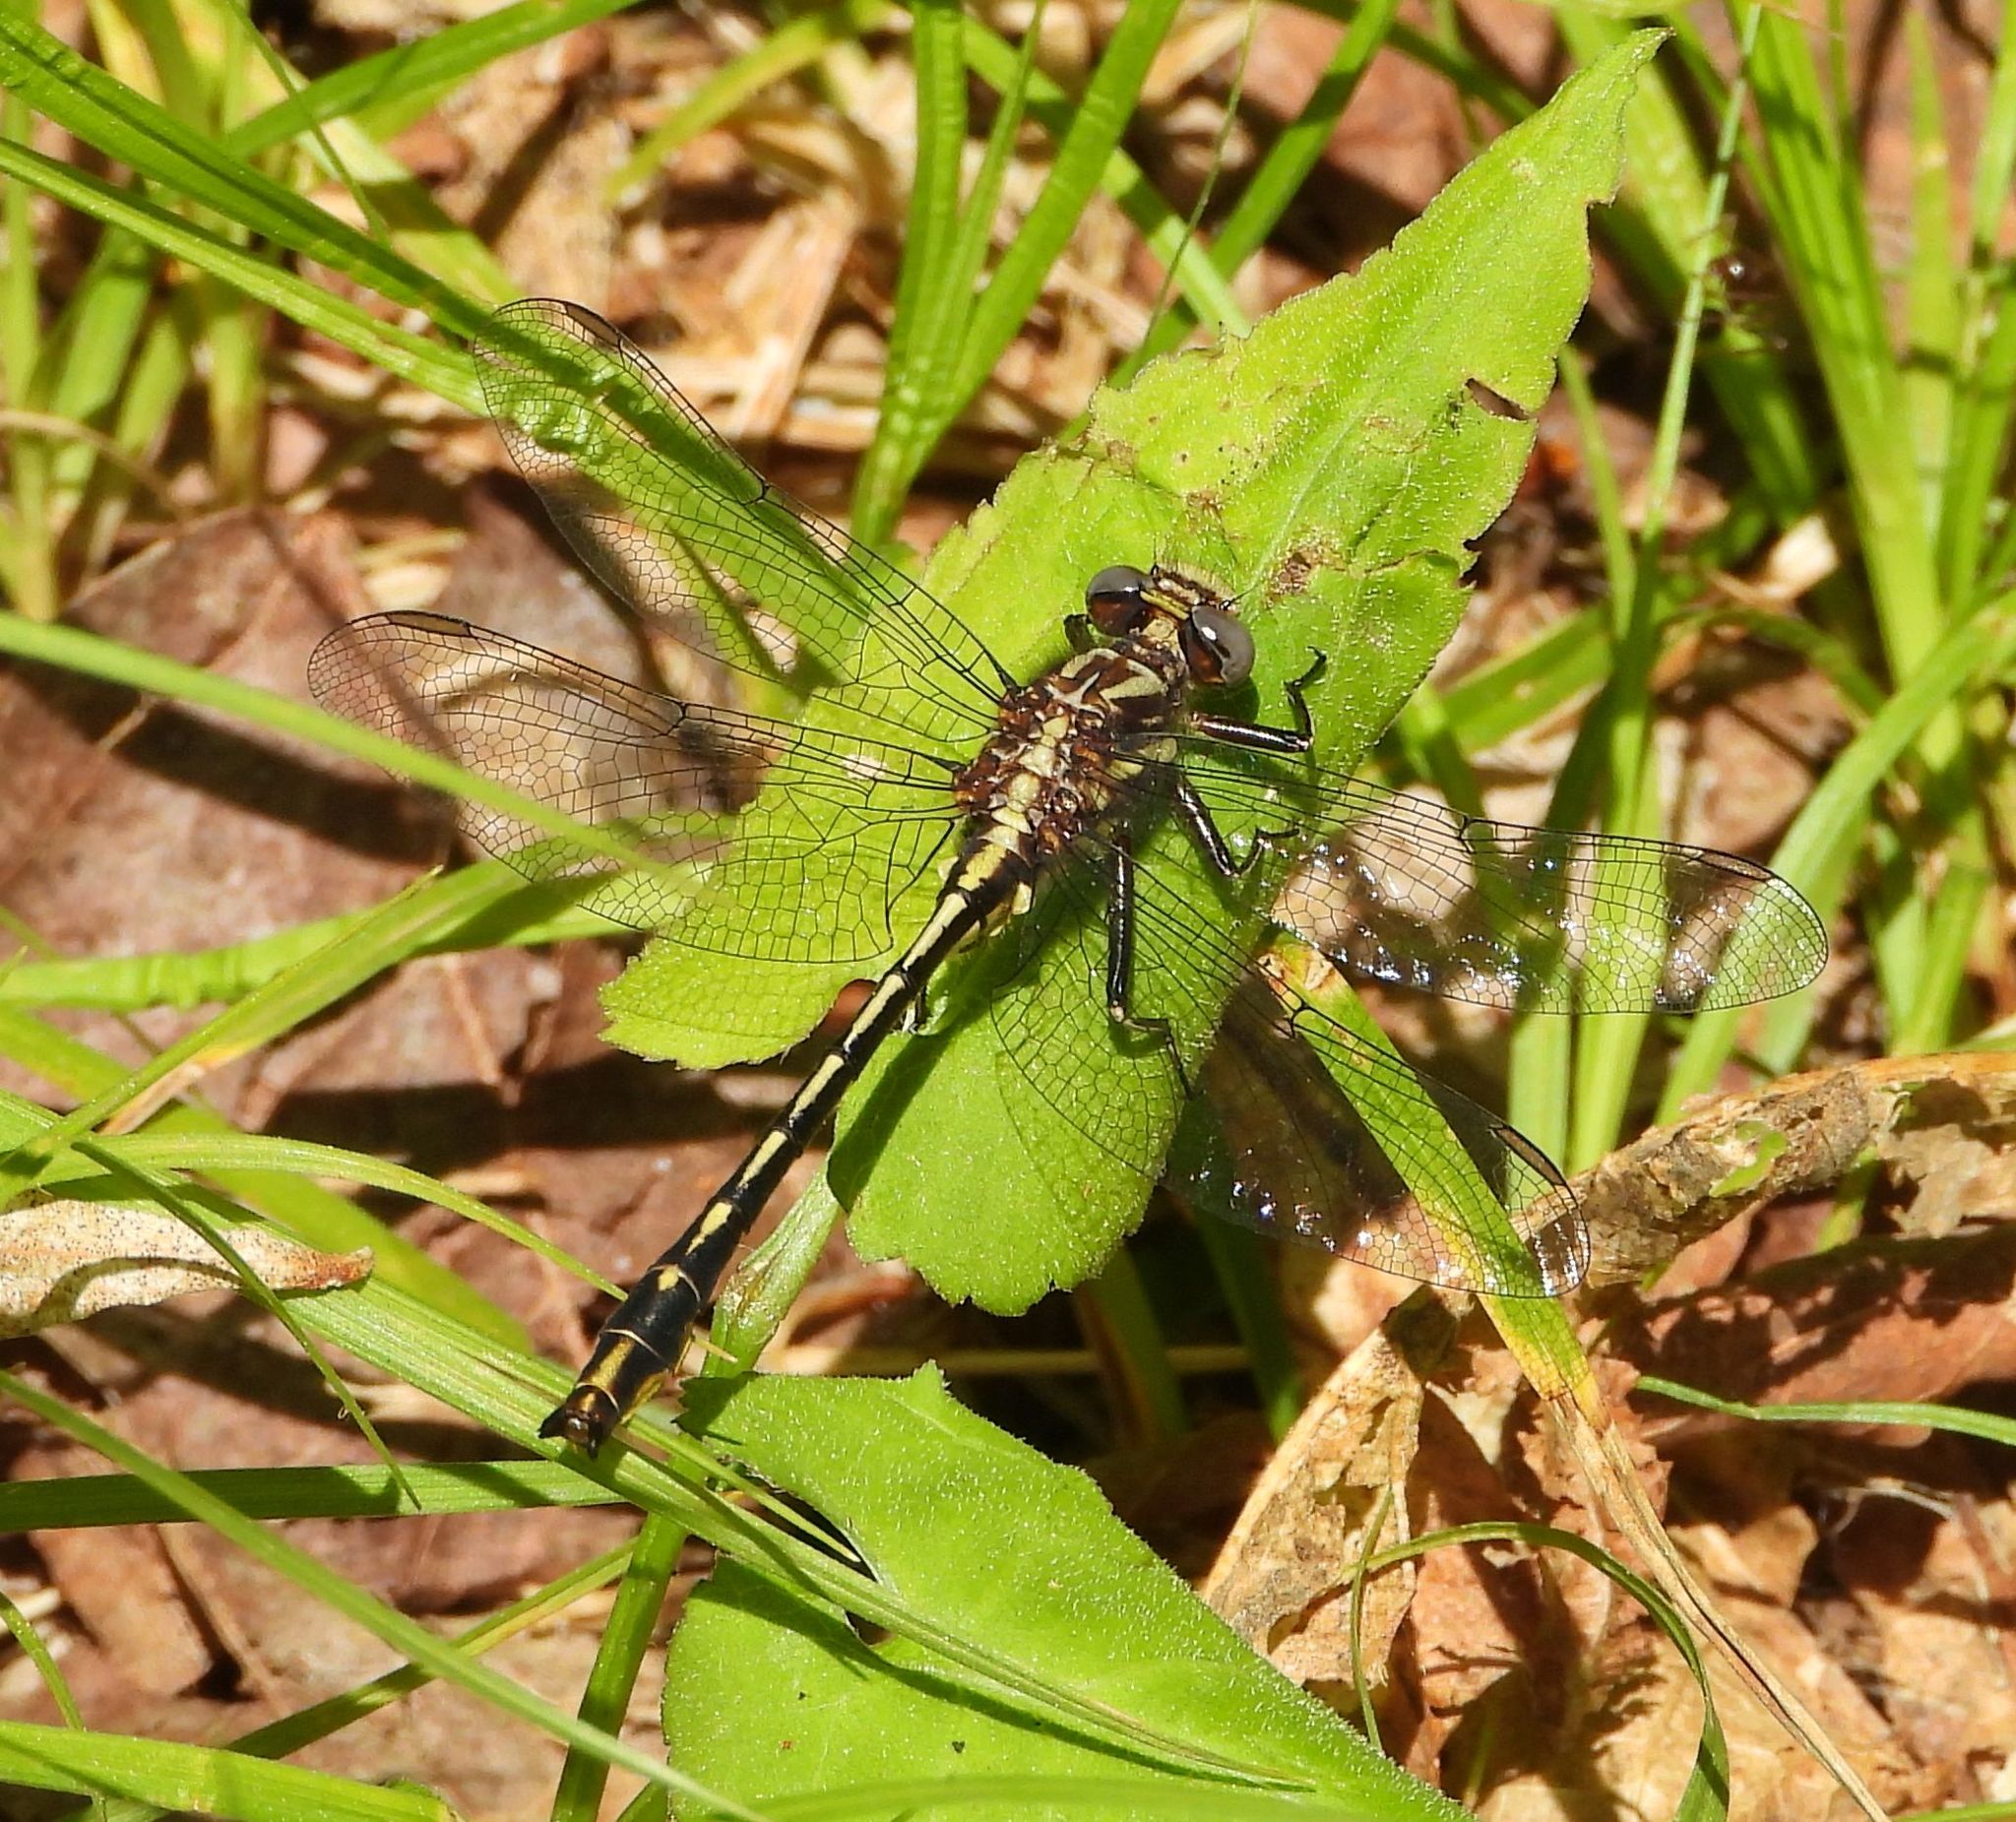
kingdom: Animalia
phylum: Arthropoda
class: Insecta
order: Odonata
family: Gomphidae
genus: Phanogomphus
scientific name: Phanogomphus exilis
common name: Lancet clubtail
